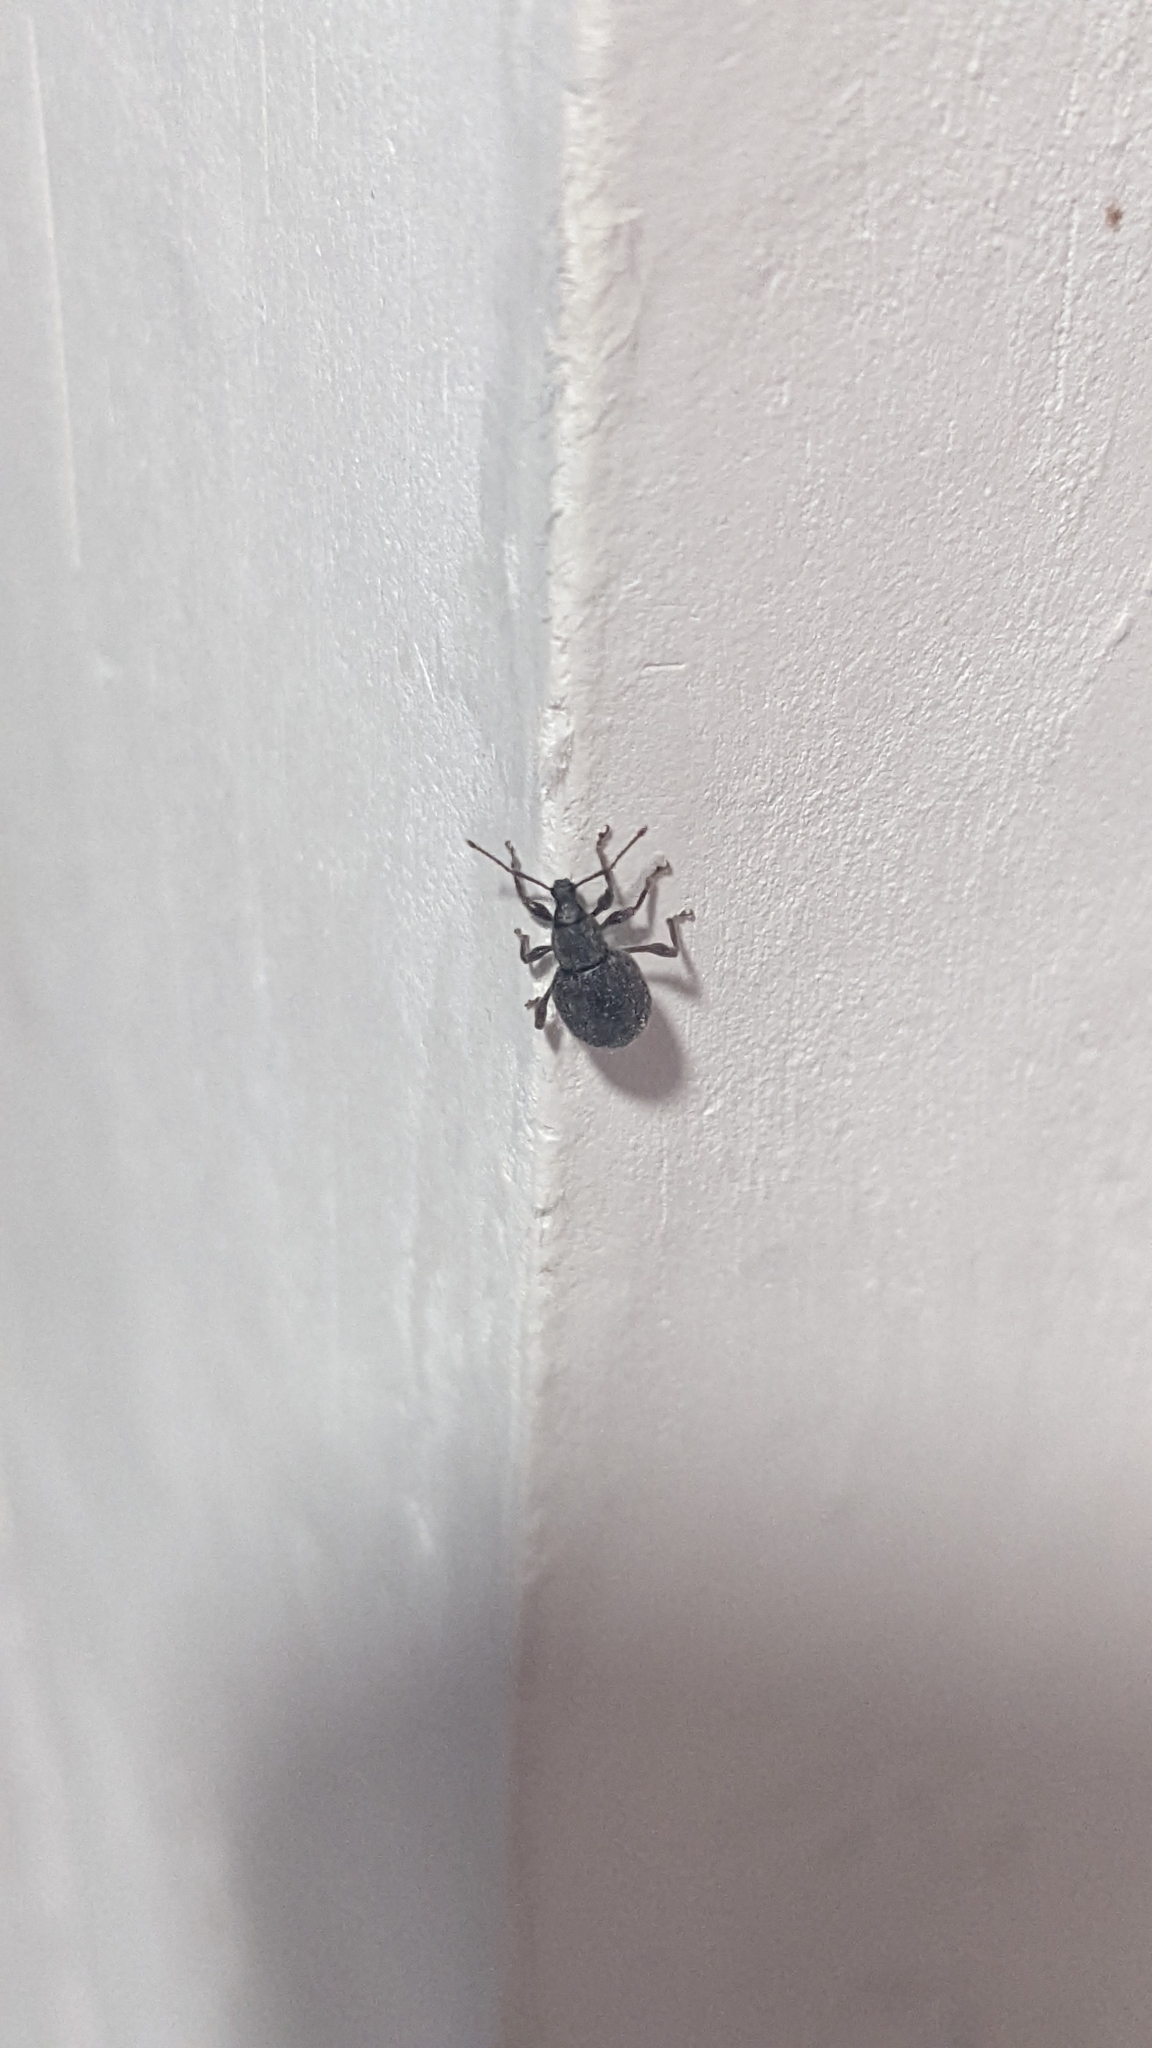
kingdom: Animalia
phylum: Arthropoda
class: Insecta
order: Coleoptera
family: Curculionidae
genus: Otiorhynchus
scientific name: Otiorhynchus rugosostriatus
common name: Weevil
